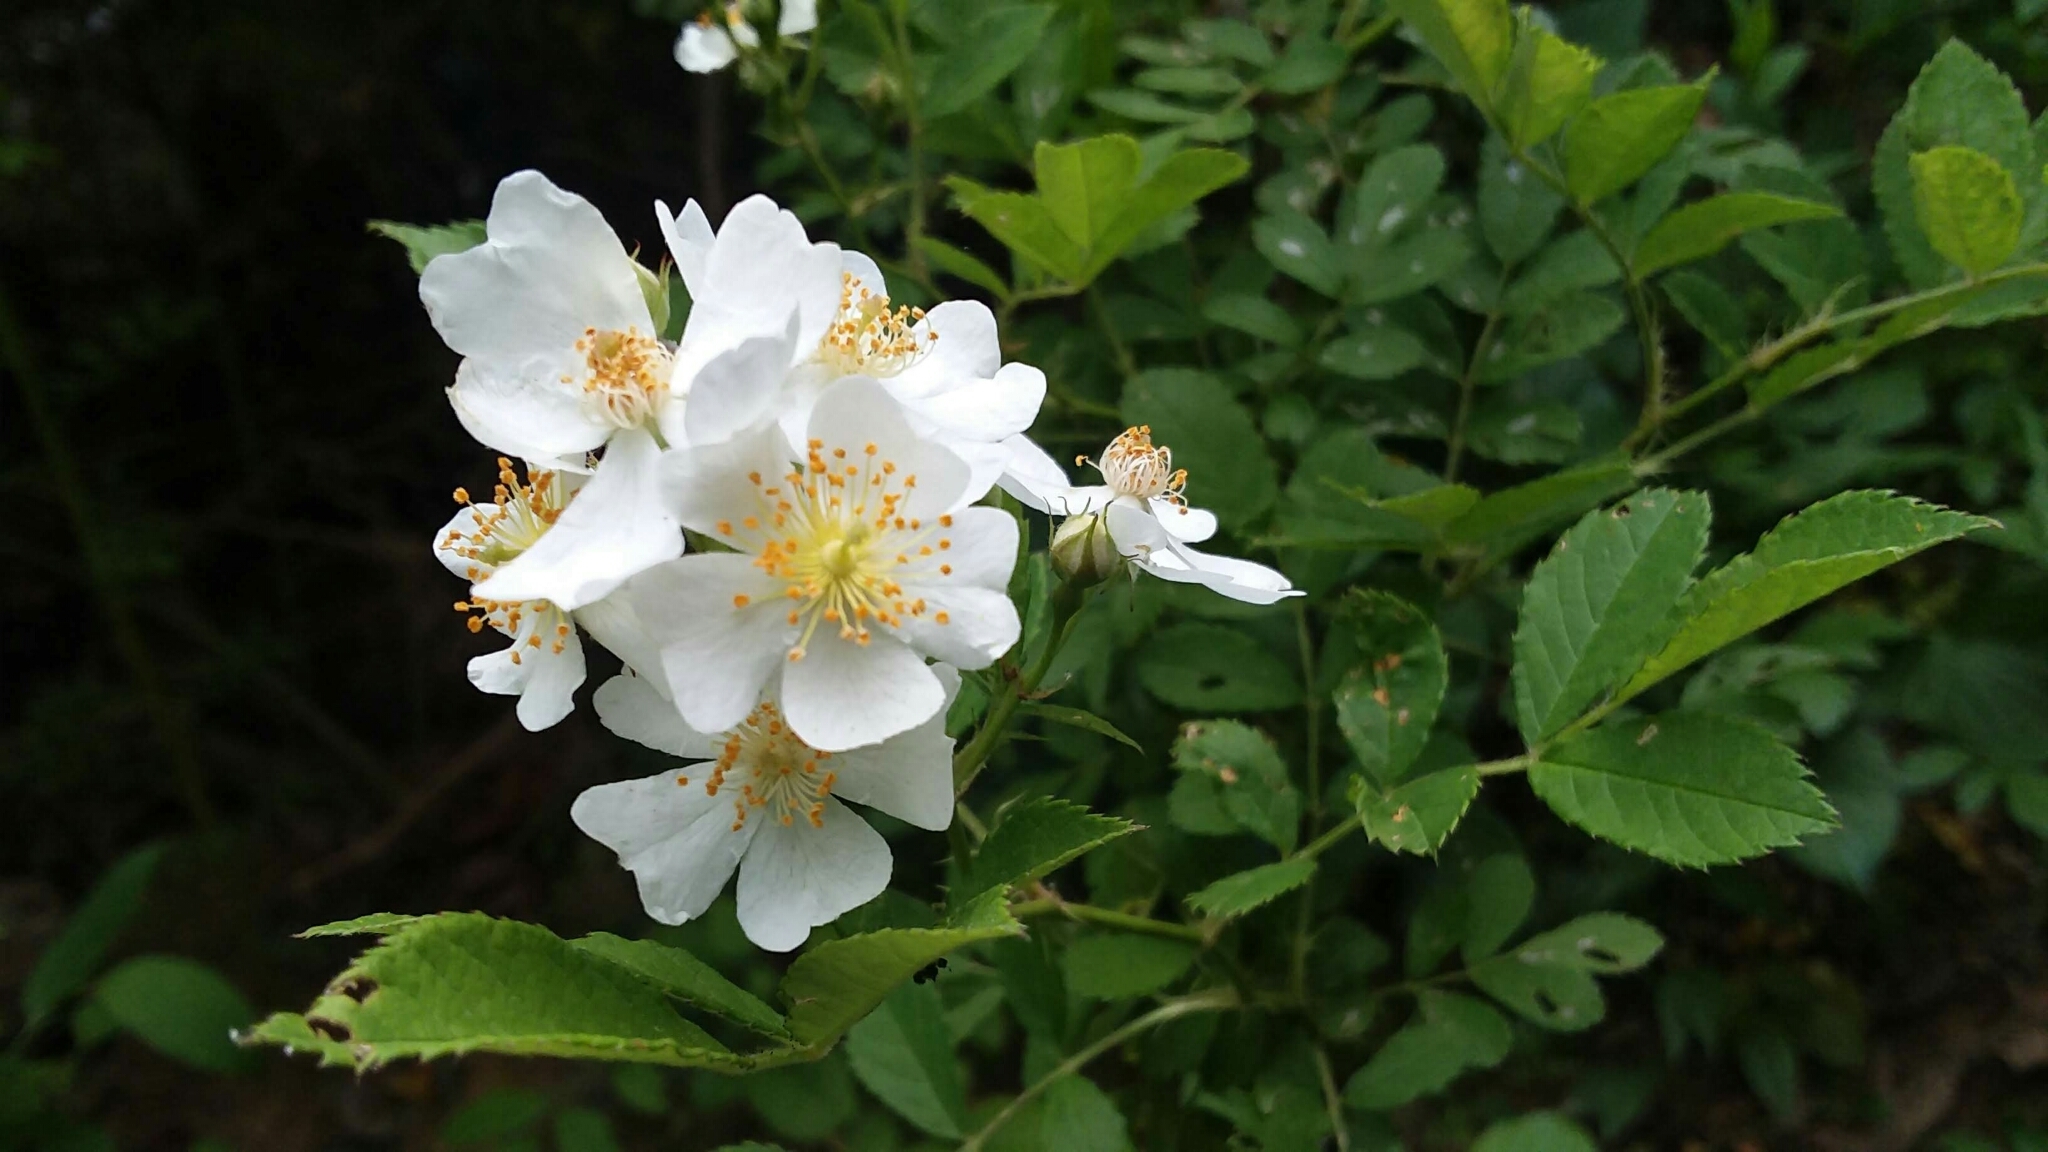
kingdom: Plantae
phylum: Tracheophyta
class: Magnoliopsida
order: Rosales
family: Rosaceae
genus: Rosa
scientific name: Rosa multiflora
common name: Multiflora rose
